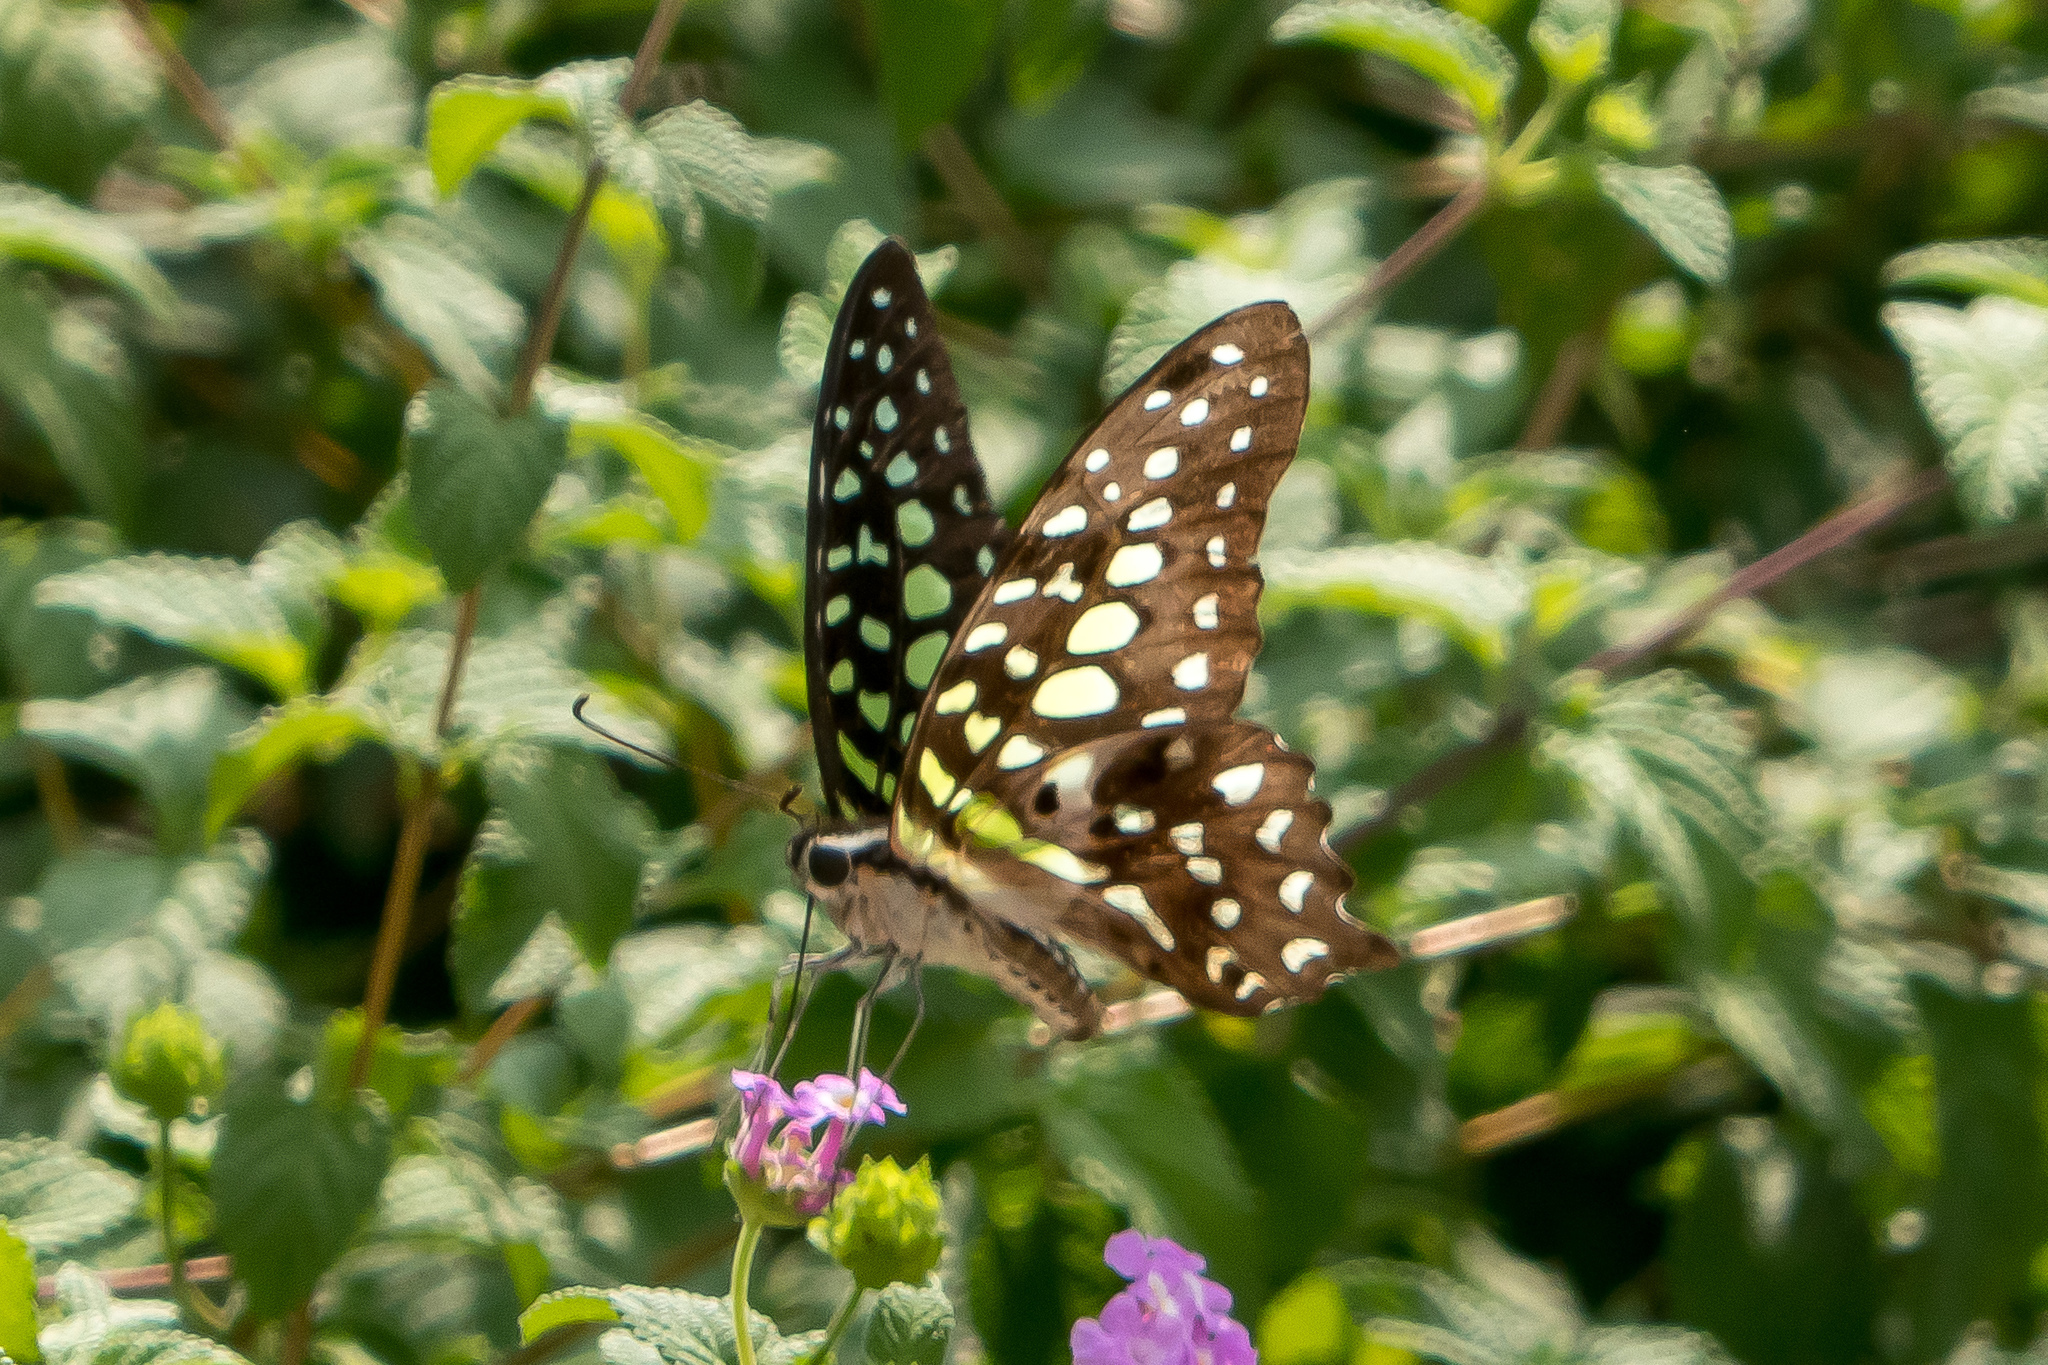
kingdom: Animalia
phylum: Arthropoda
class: Insecta
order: Lepidoptera
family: Papilionidae
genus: Graphium
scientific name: Graphium agamemnon
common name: Tailed jay
